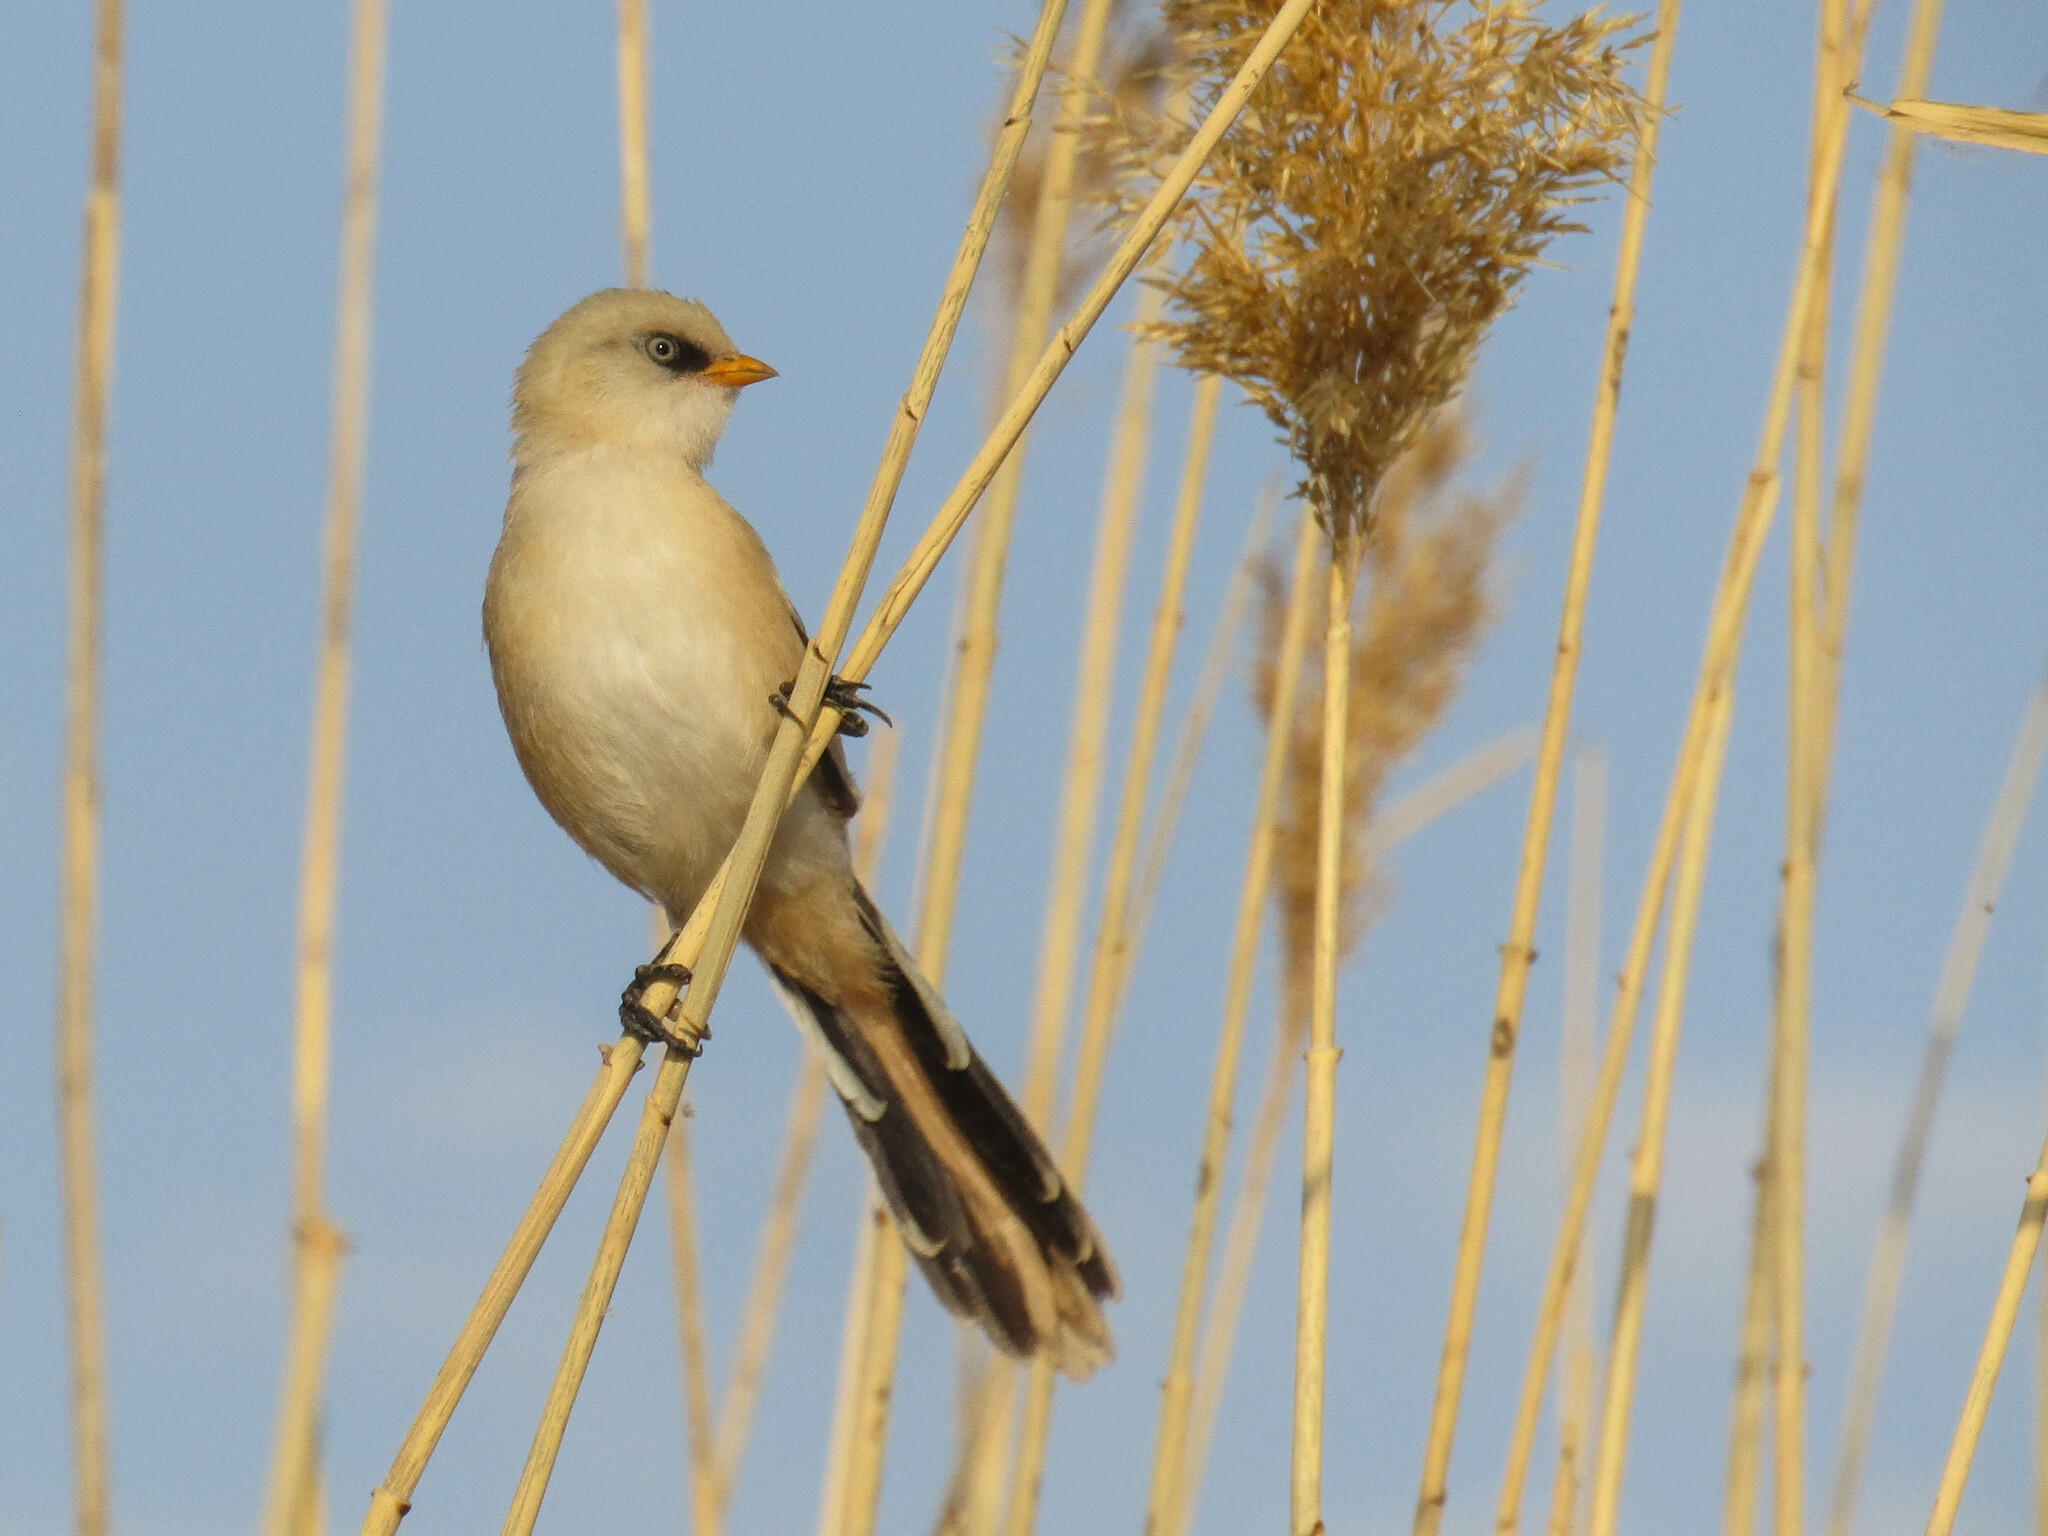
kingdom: Animalia
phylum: Chordata
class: Aves
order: Passeriformes
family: Panuridae
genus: Panurus
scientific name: Panurus biarmicus
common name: Bearded reedling
